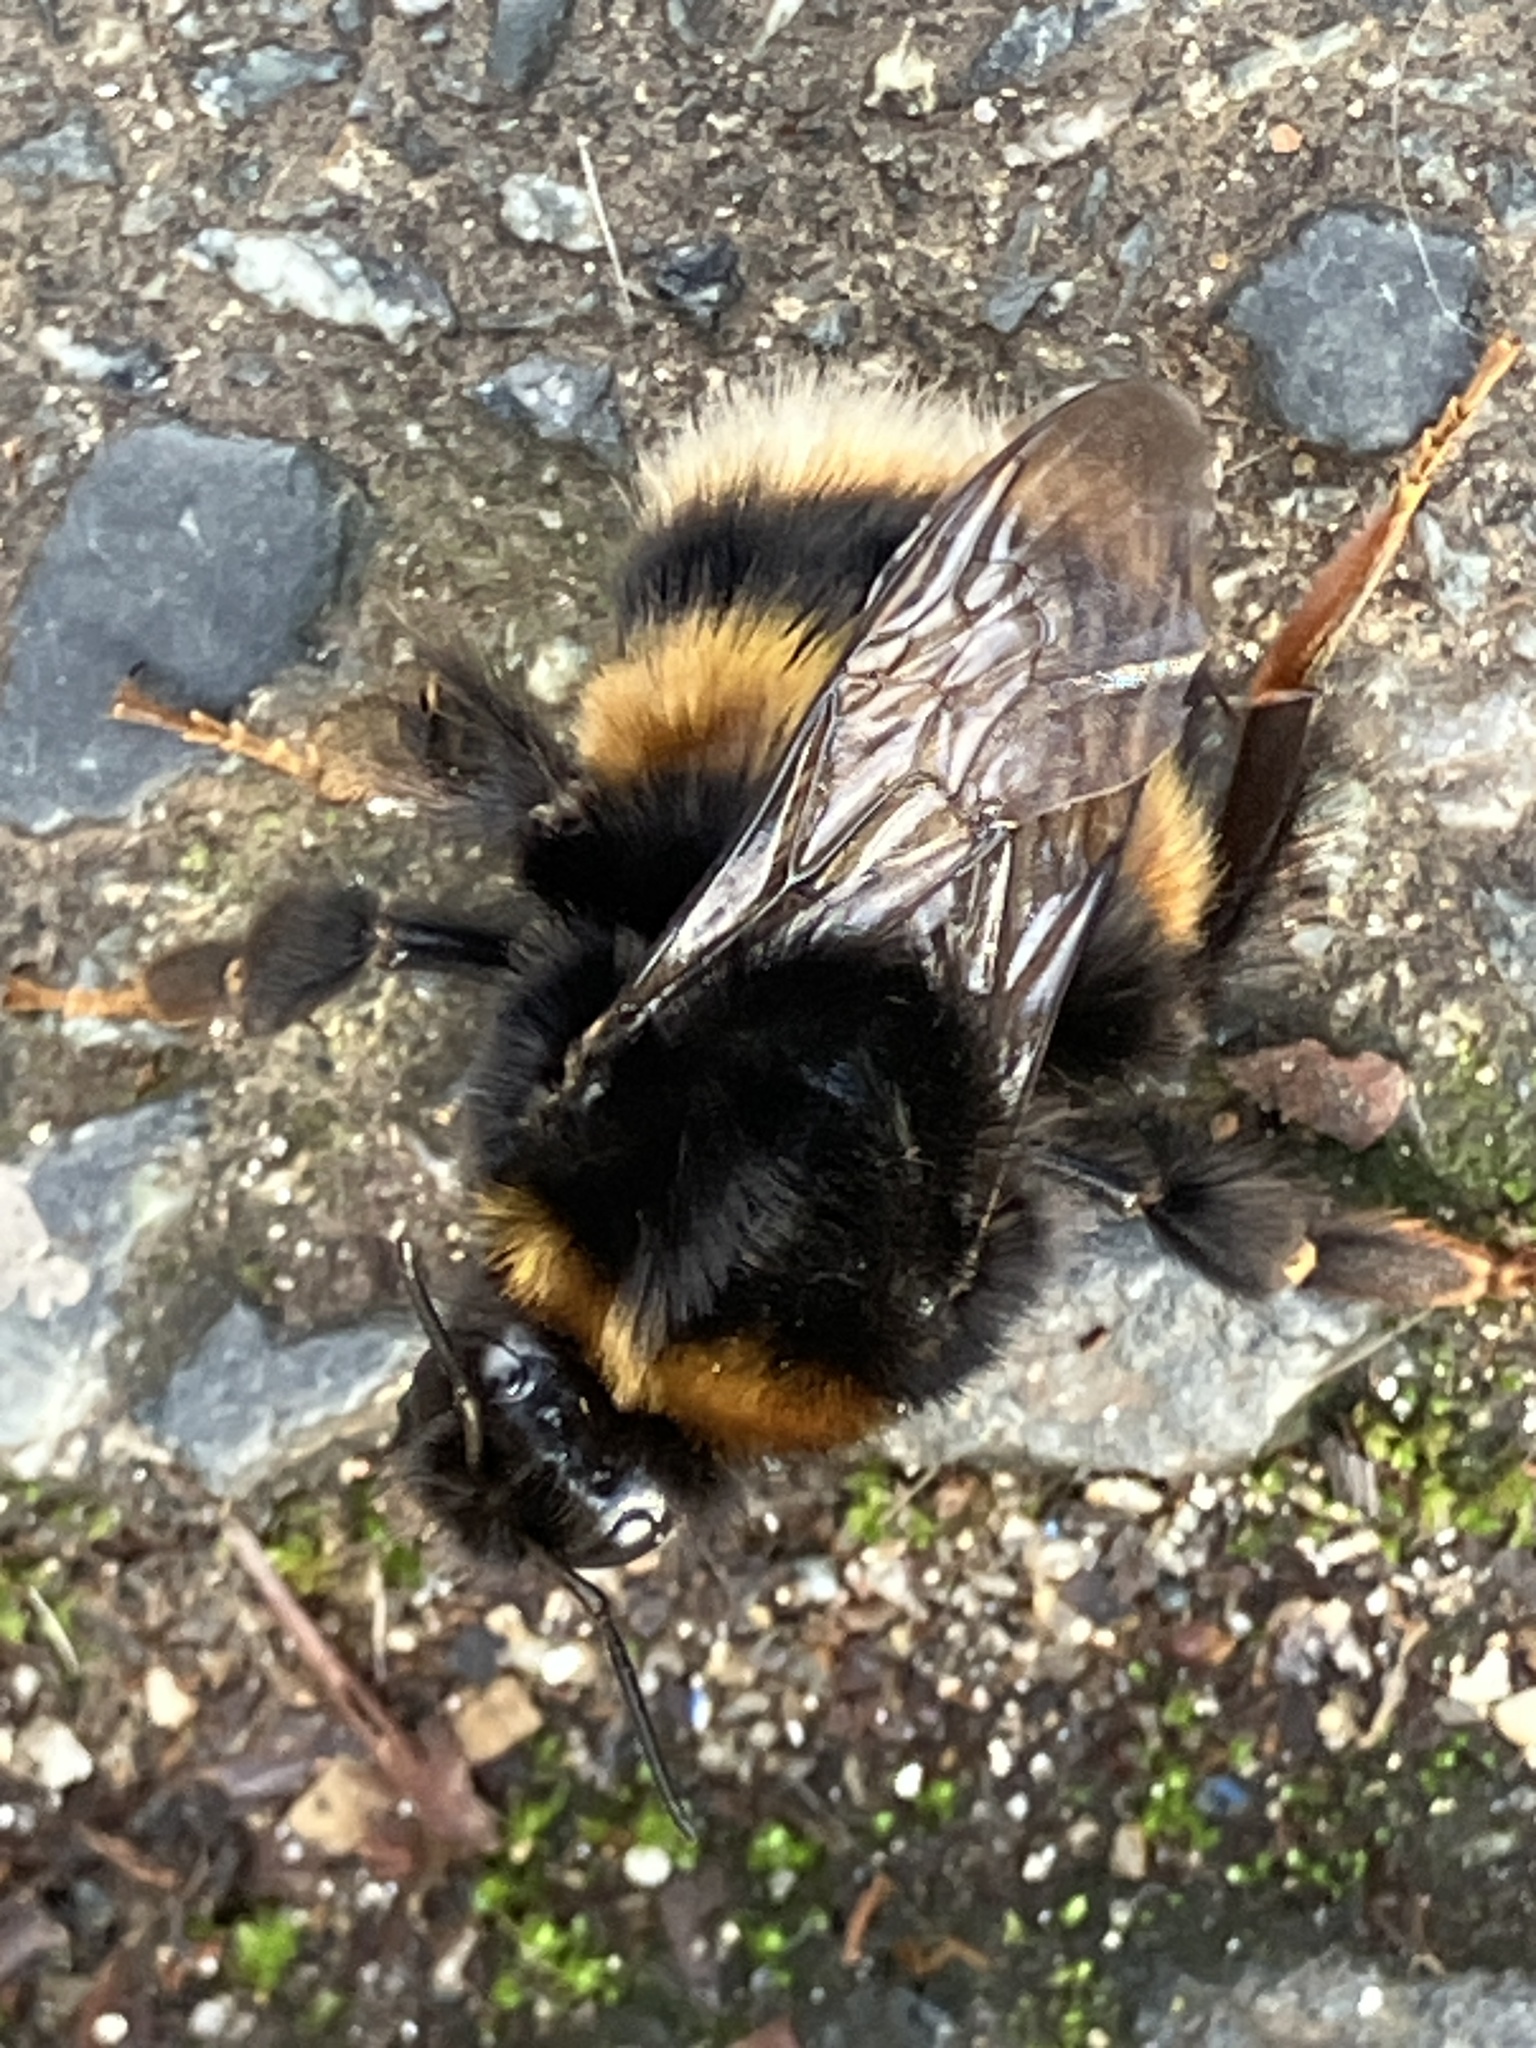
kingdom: Animalia
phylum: Arthropoda
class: Insecta
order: Hymenoptera
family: Apidae
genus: Bombus
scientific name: Bombus terrestris
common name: Buff-tailed bumblebee
